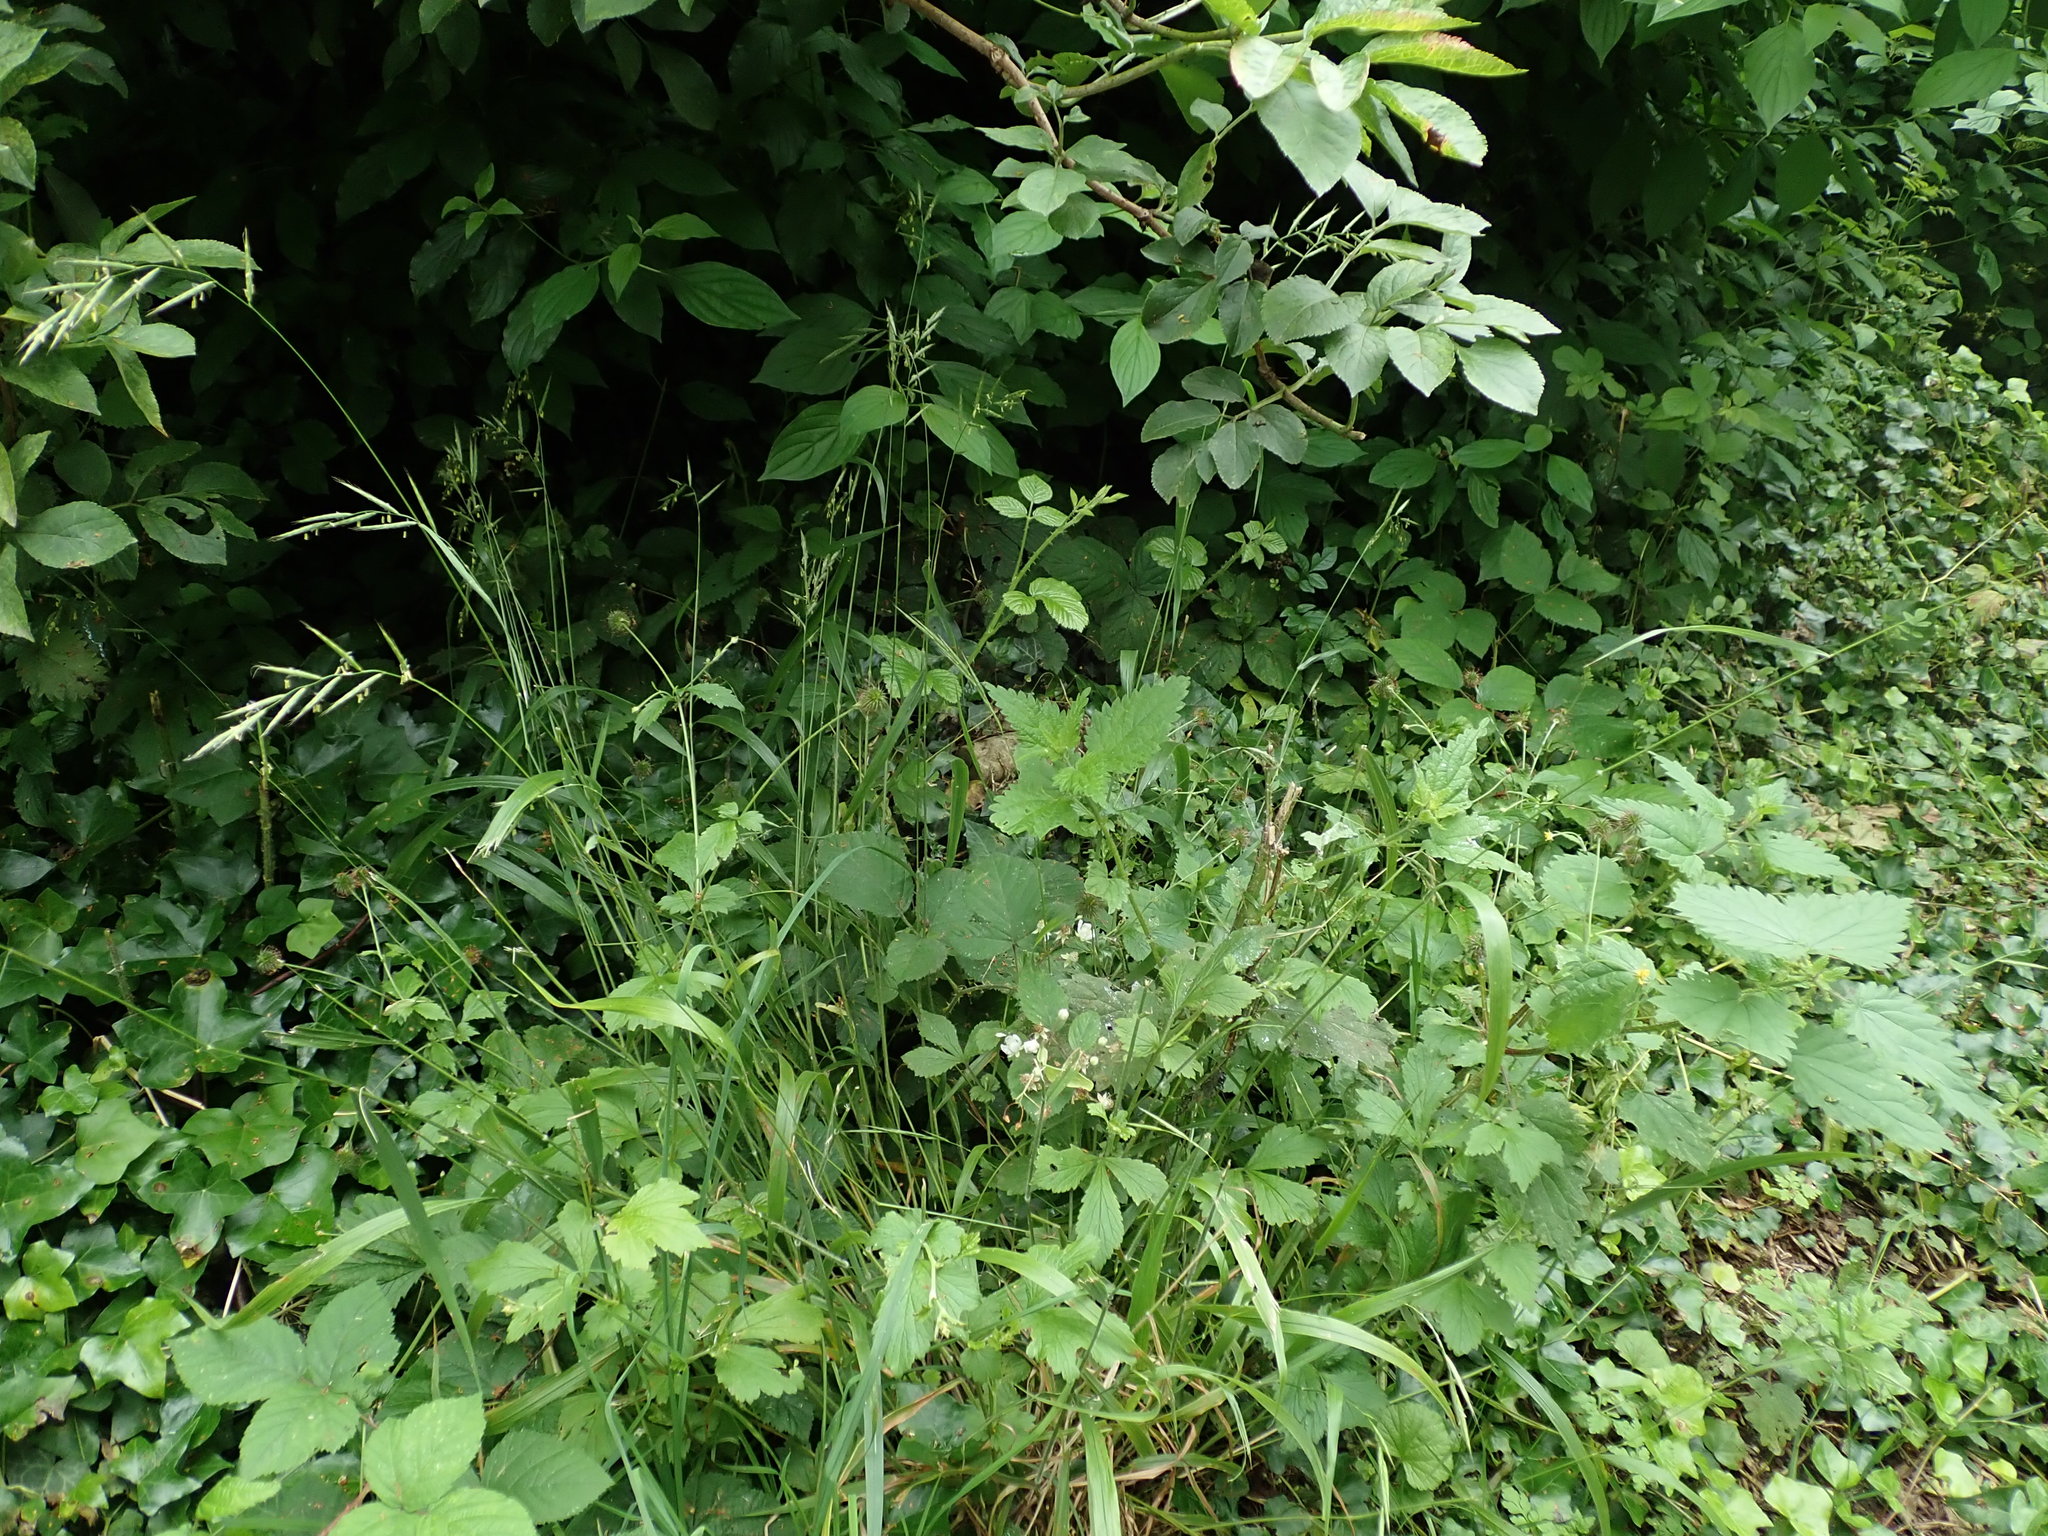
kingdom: Plantae
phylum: Tracheophyta
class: Liliopsida
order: Poales
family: Poaceae
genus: Brachypodium
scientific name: Brachypodium sylvaticum
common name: False-brome
